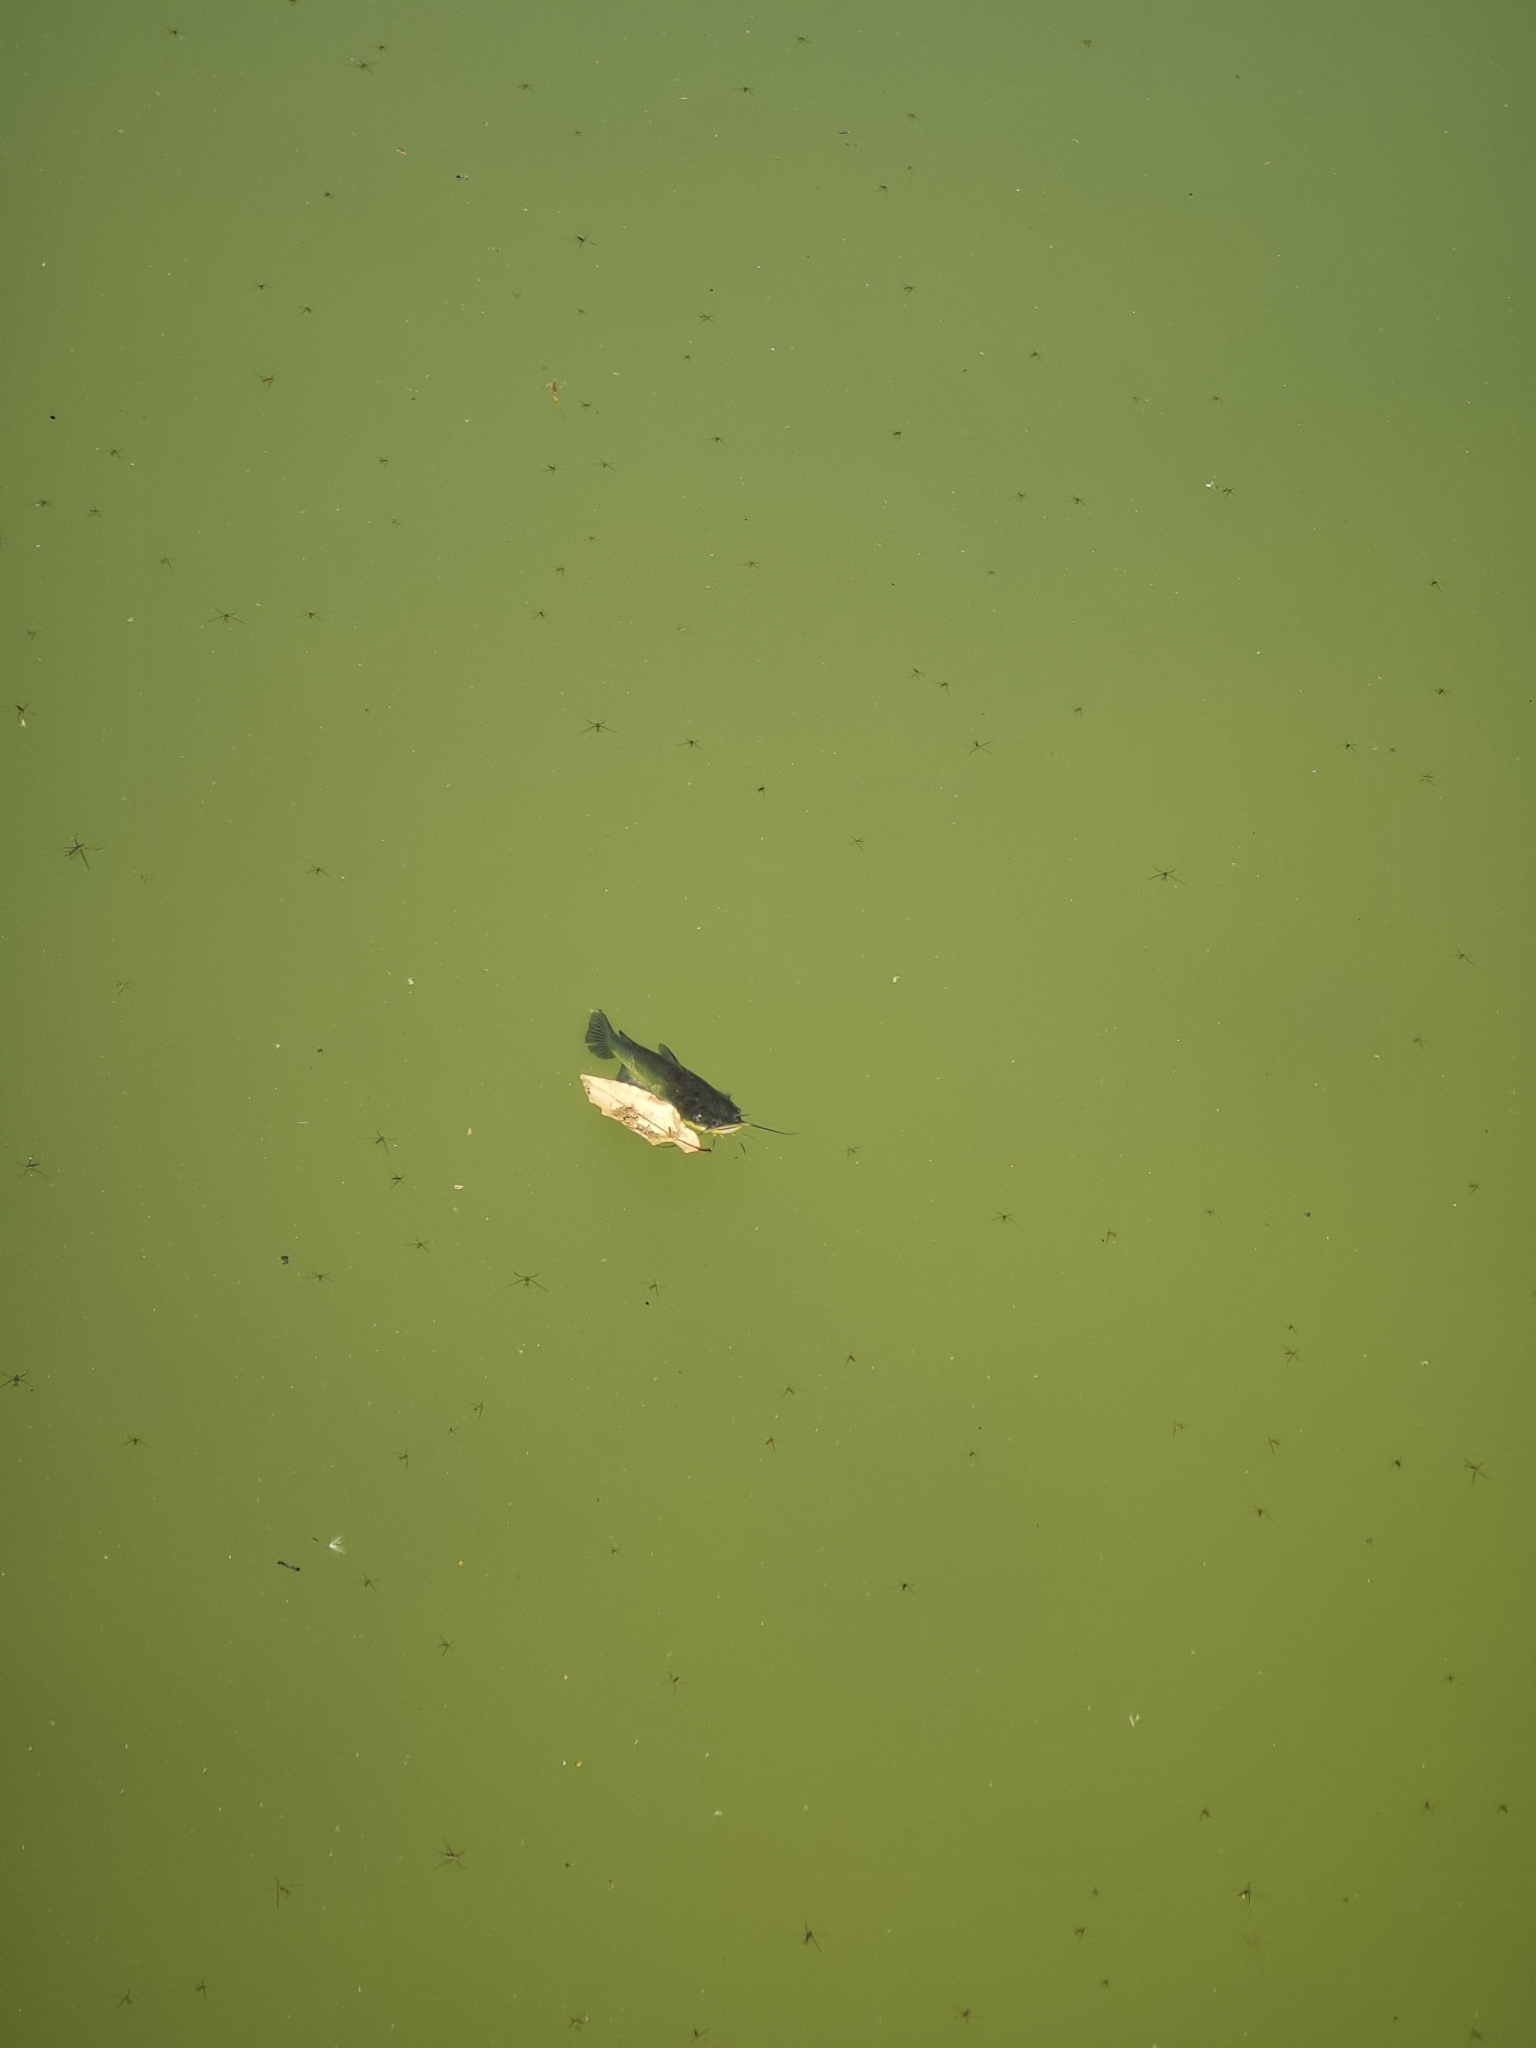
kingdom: Animalia
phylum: Chordata
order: Siluriformes
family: Ictaluridae
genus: Ameiurus
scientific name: Ameiurus melas
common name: Black bullhead
